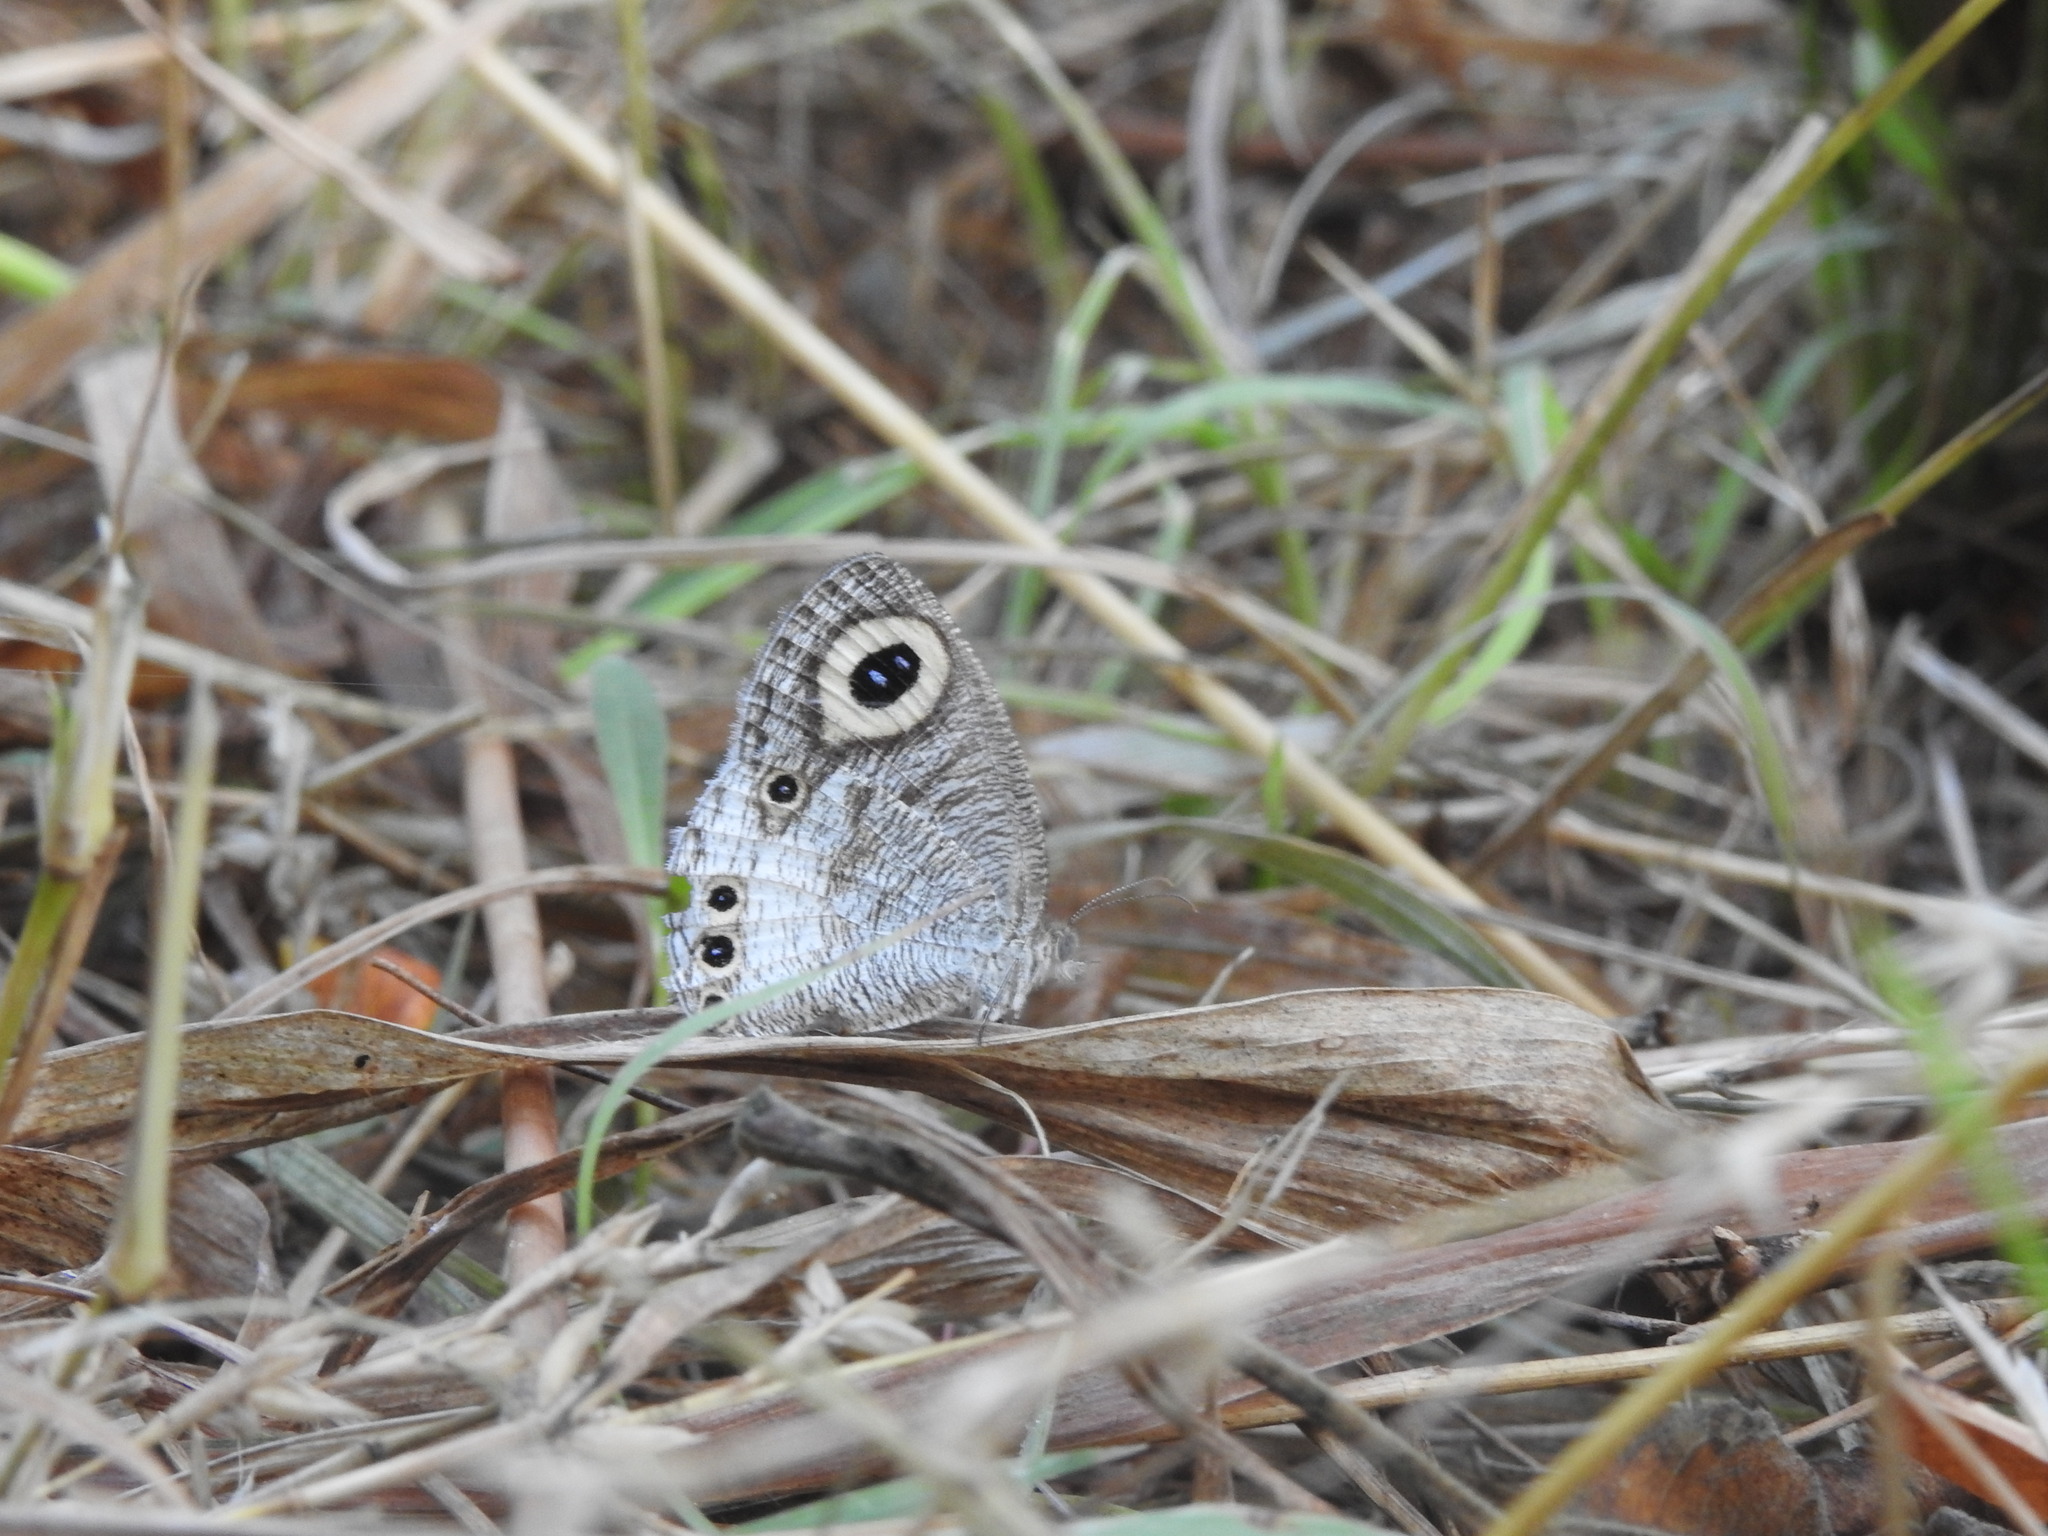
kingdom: Animalia
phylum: Arthropoda
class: Insecta
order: Lepidoptera
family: Nymphalidae
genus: Ypthima
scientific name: Ypthima ceylonica
